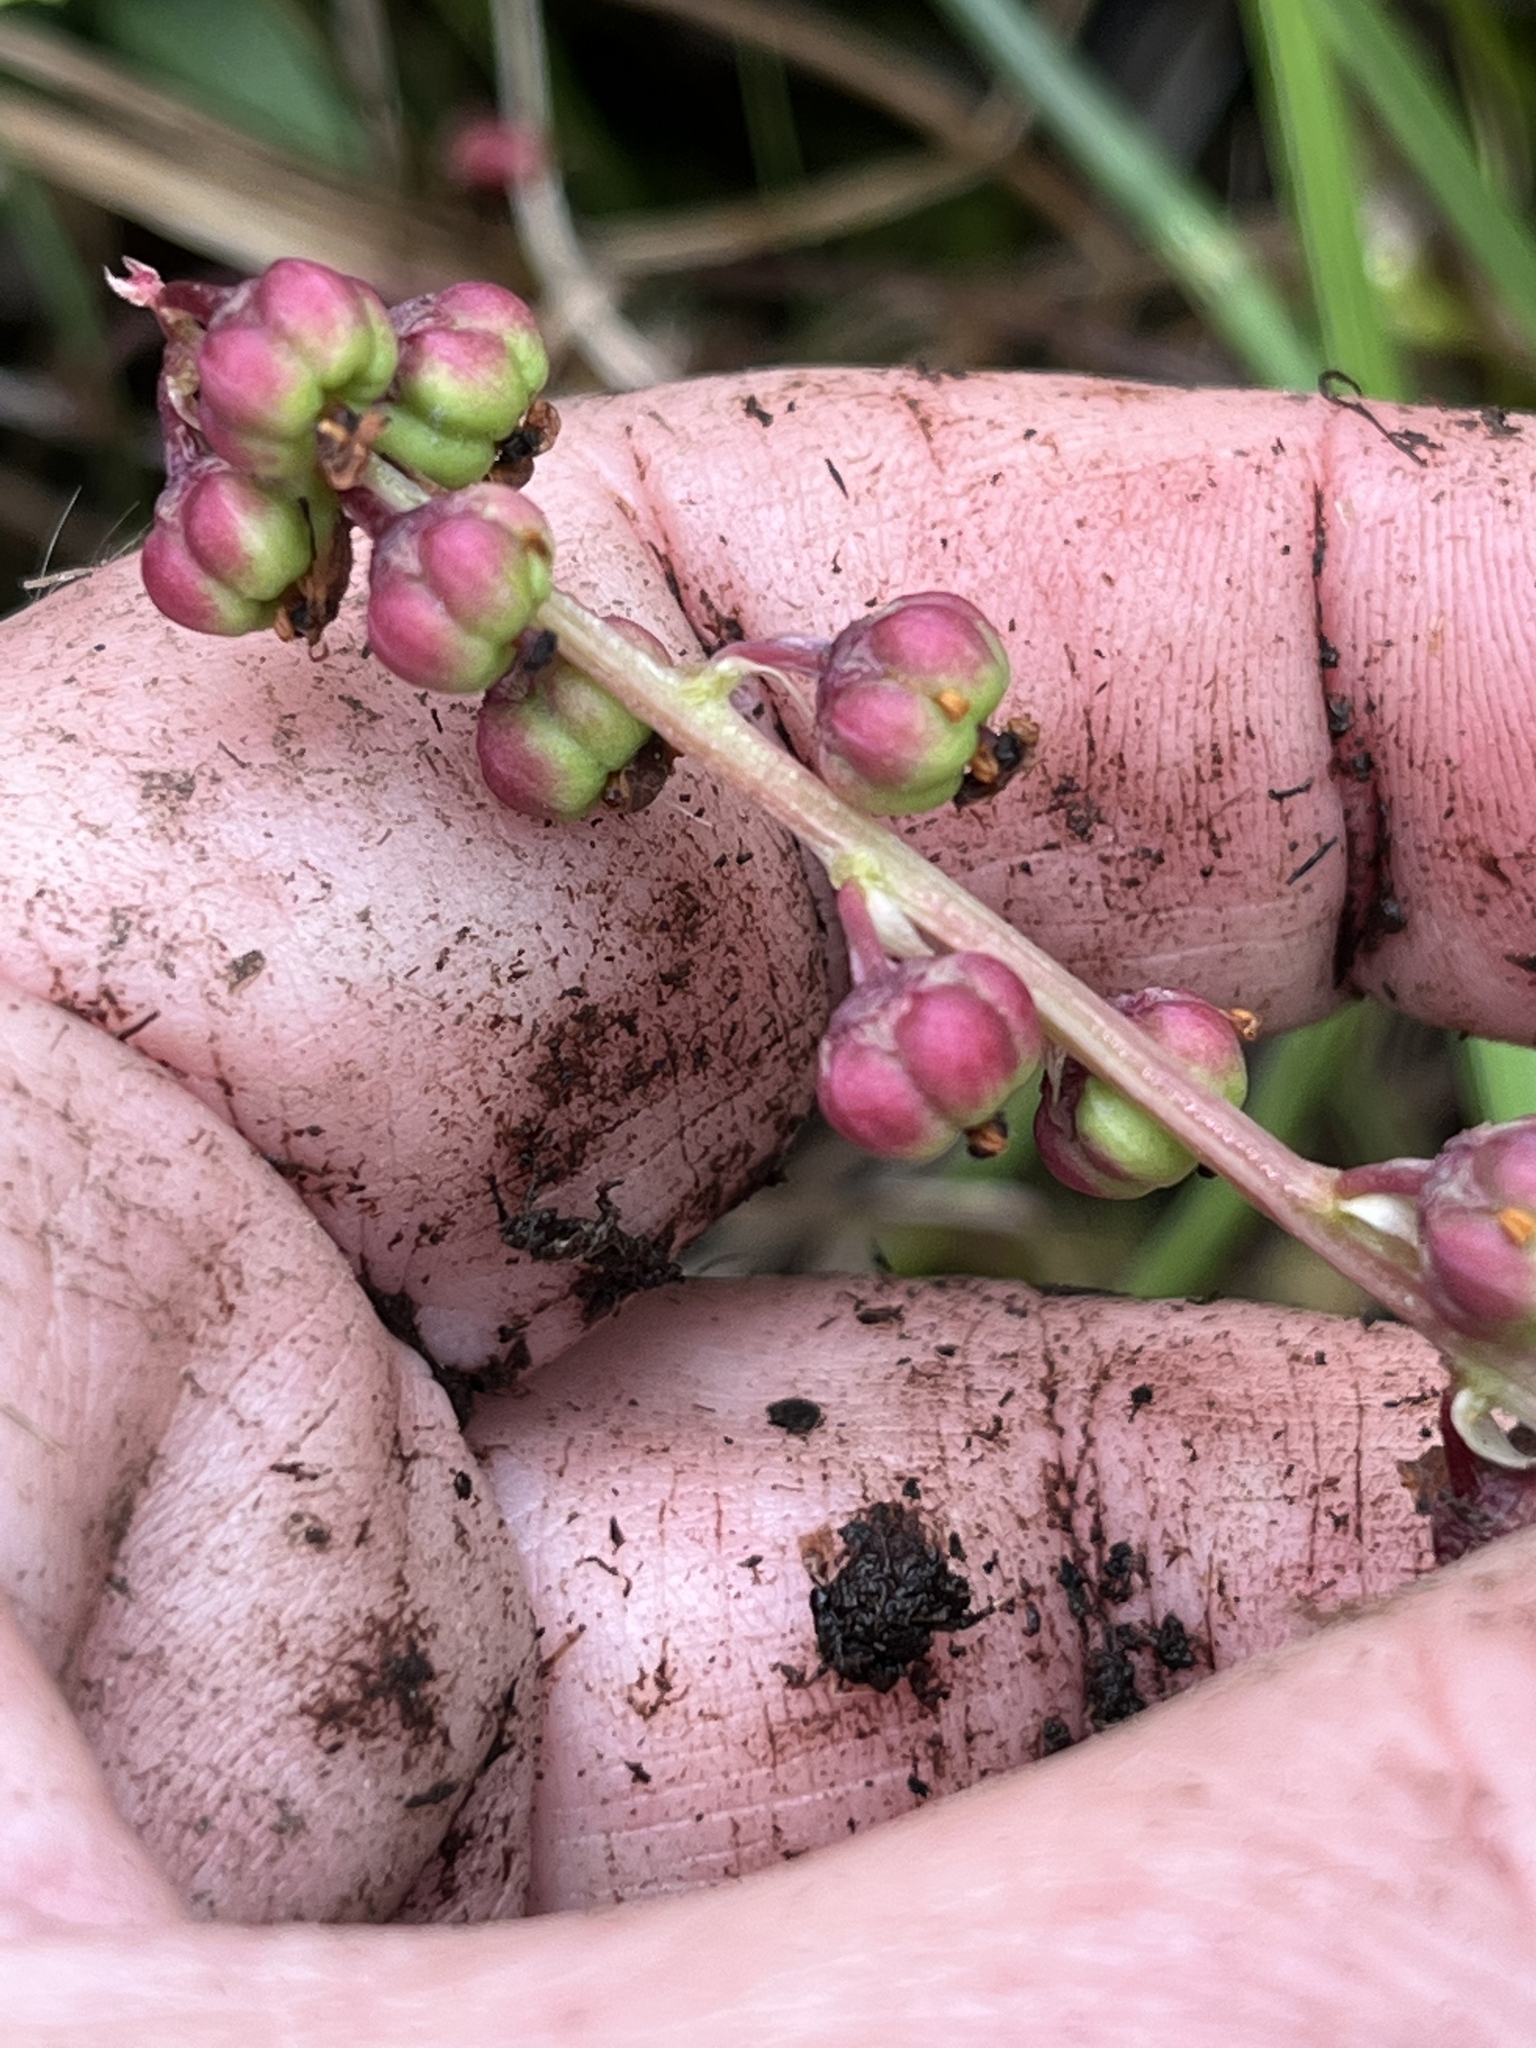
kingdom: Plantae
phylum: Tracheophyta
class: Magnoliopsida
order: Ericales
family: Ericaceae
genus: Pyrola
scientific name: Pyrola minor
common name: Common wintergreen
